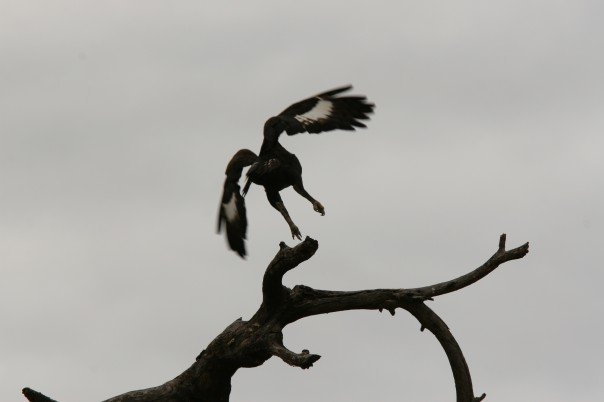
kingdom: Animalia
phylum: Chordata
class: Aves
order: Accipitriformes
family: Accipitridae
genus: Lophaetus
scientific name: Lophaetus occipitalis
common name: Long-crested eagle
